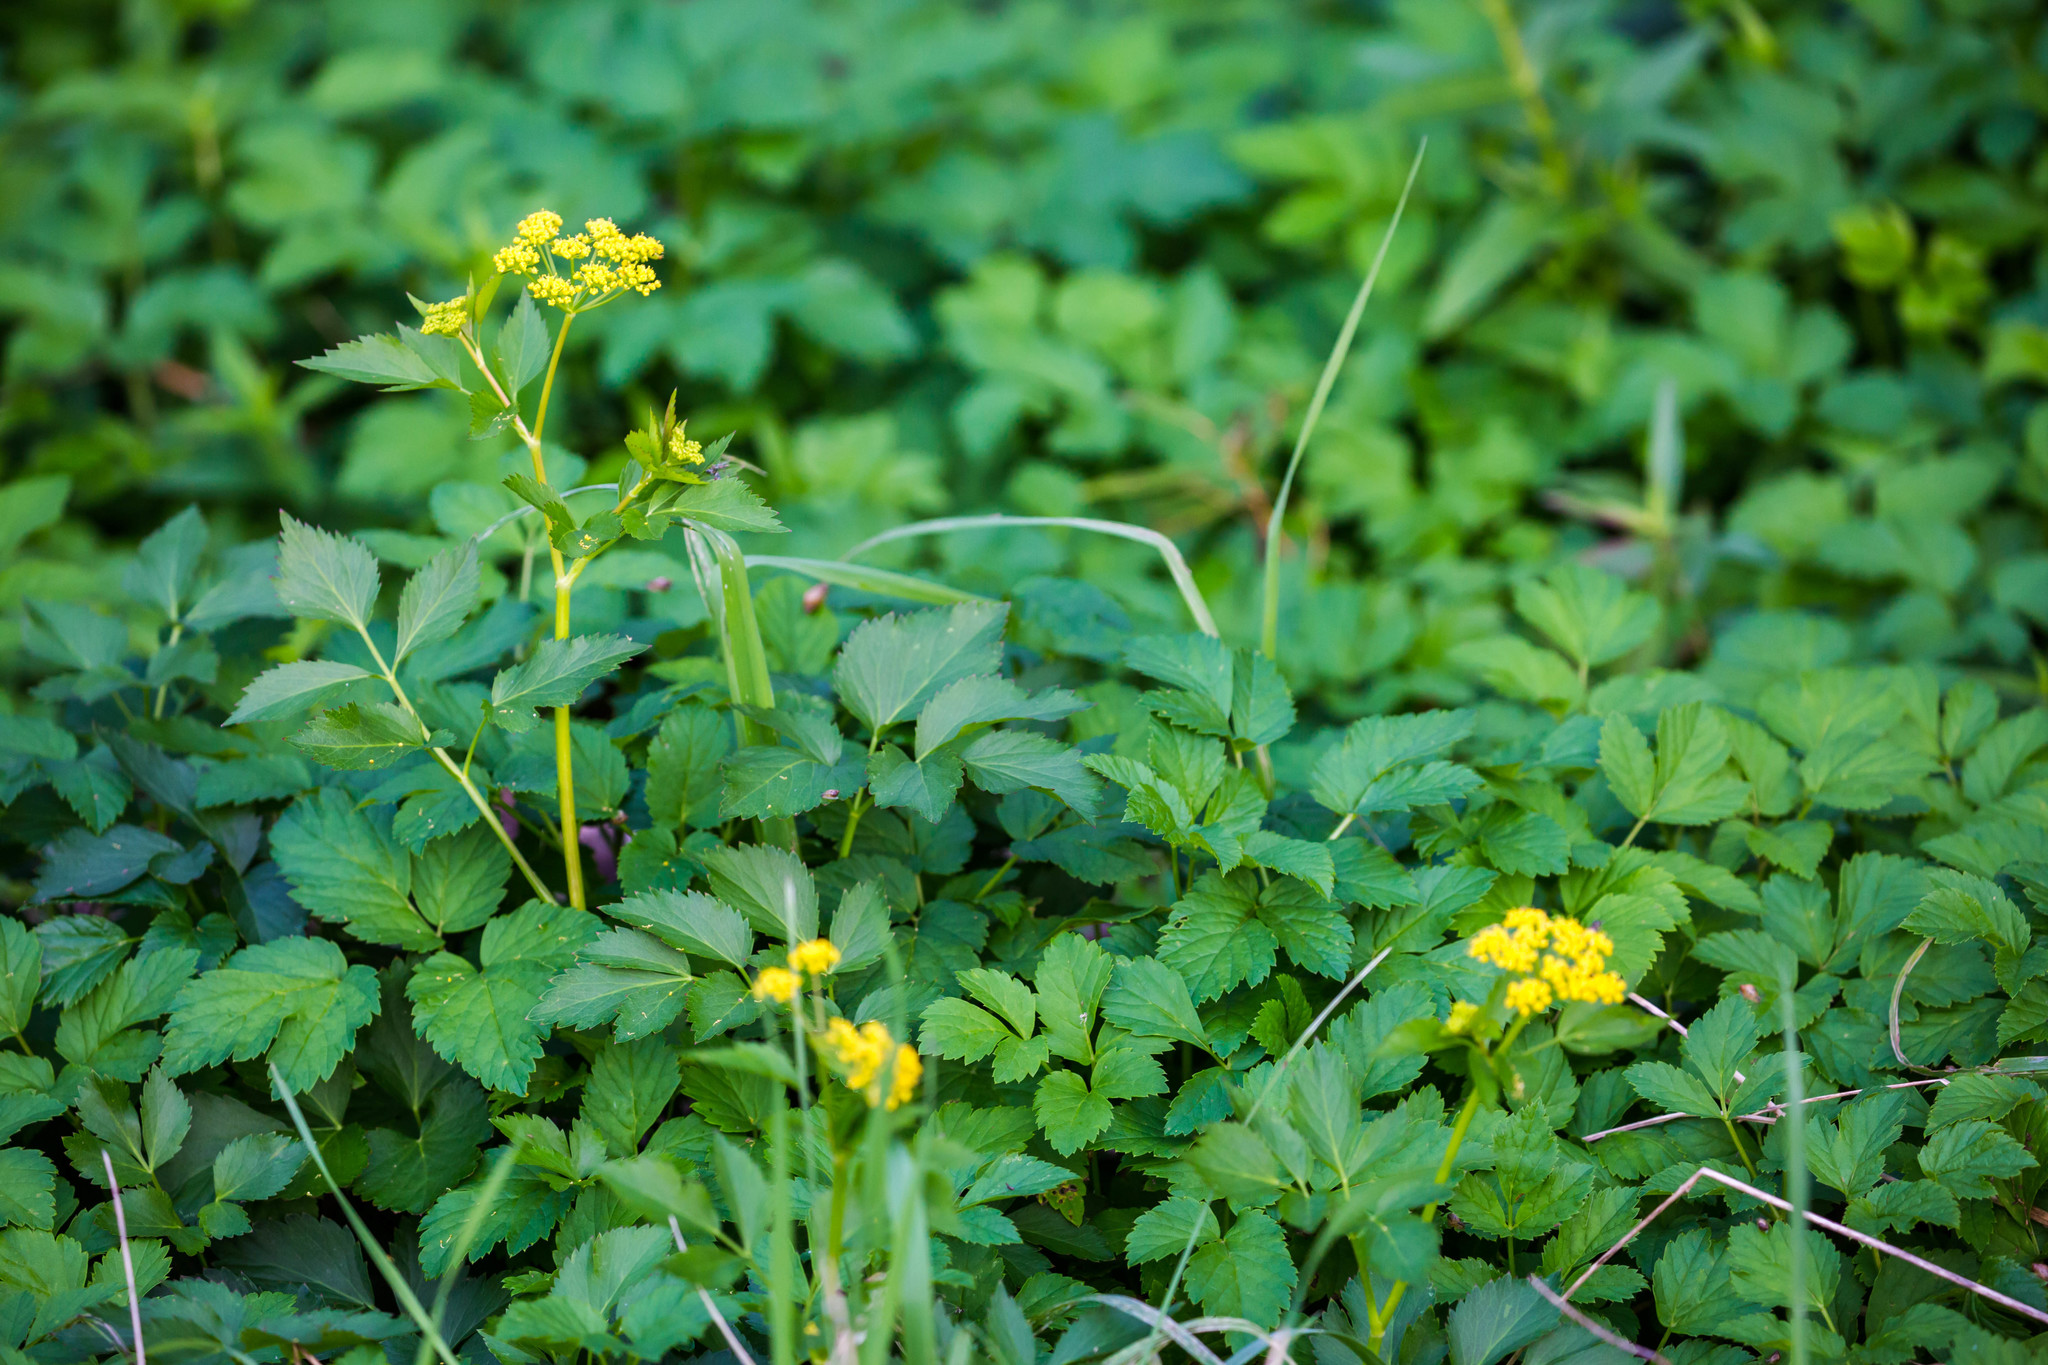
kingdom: Plantae
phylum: Tracheophyta
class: Magnoliopsida
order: Apiales
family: Apiaceae
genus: Zizia
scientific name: Zizia aurea
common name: Golden alexanders
